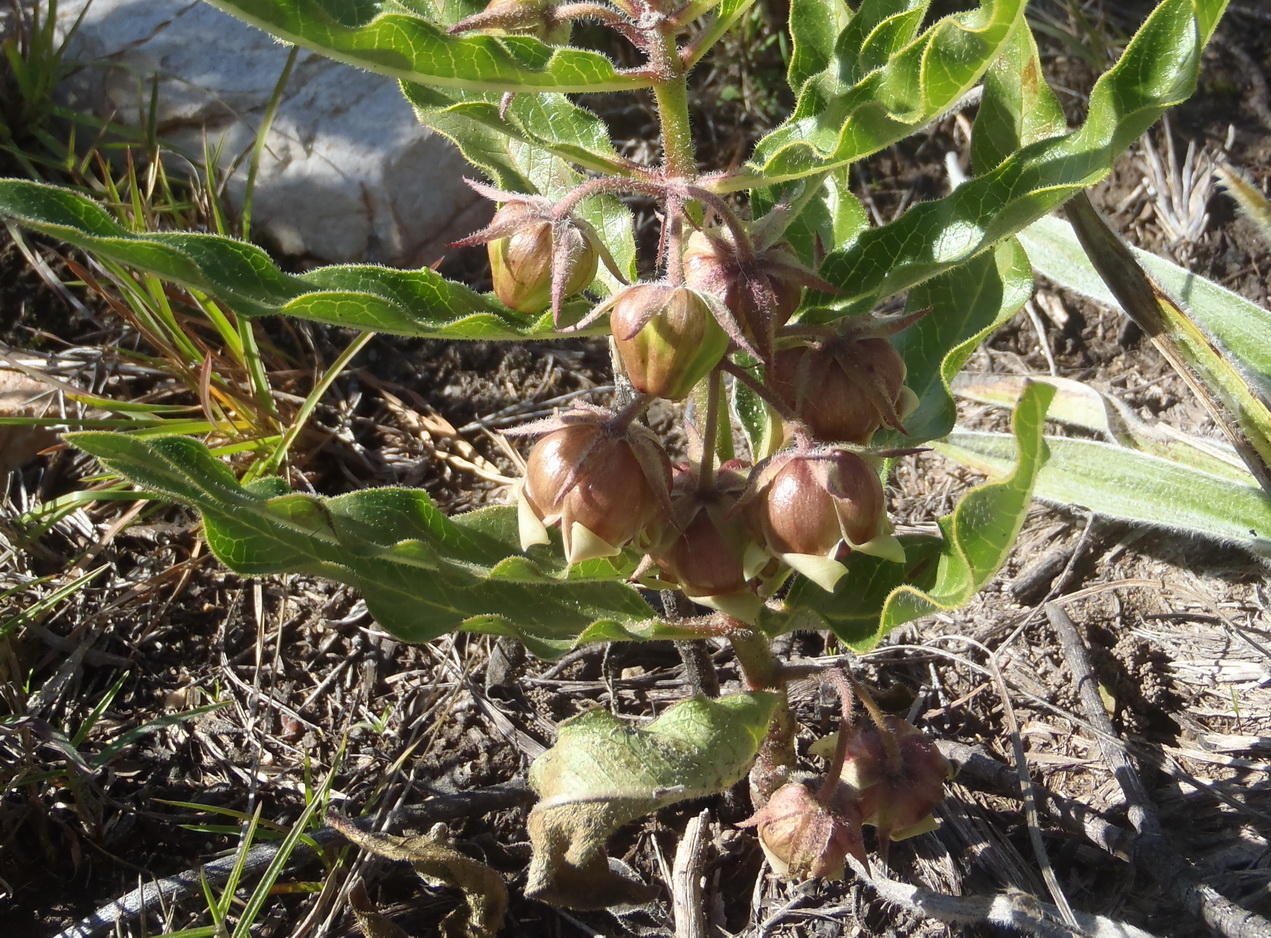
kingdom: Plantae
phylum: Tracheophyta
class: Magnoliopsida
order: Gentianales
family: Apocynaceae
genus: Pachycarpus
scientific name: Pachycarpus dealbatus
